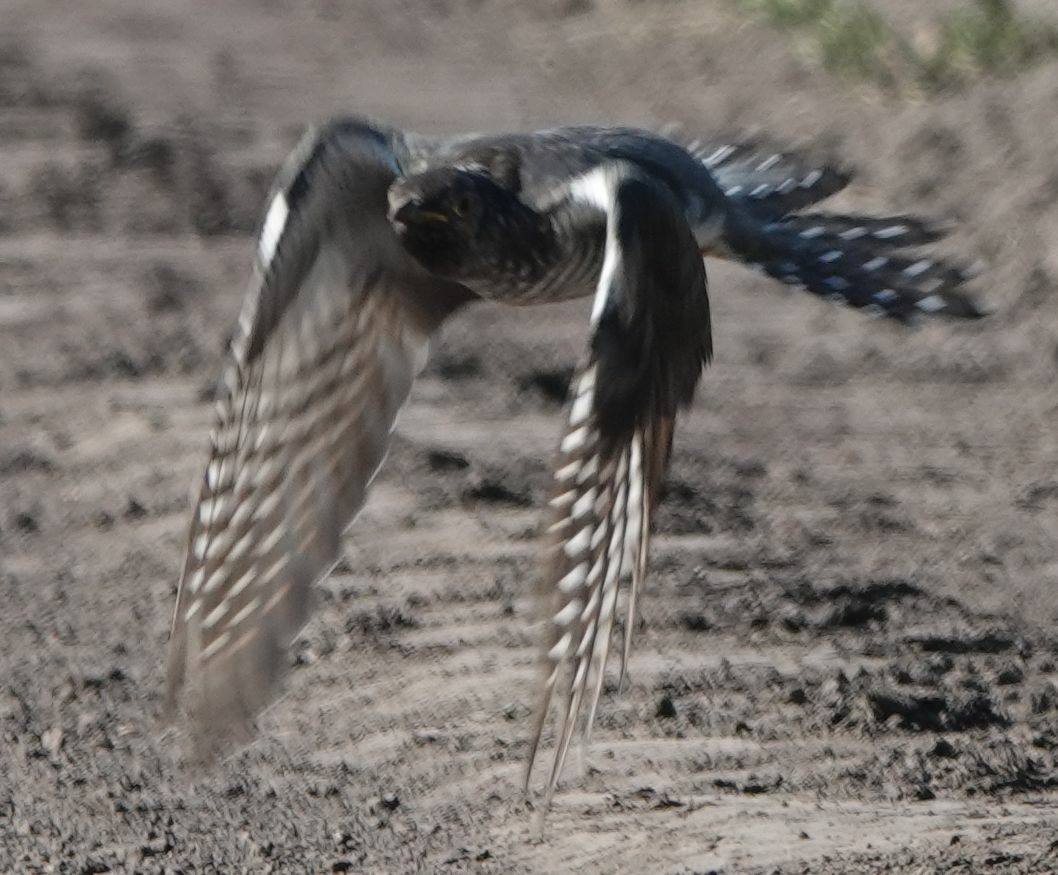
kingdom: Animalia
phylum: Chordata
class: Aves
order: Cuculiformes
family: Cuculidae
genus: Cuculus
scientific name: Cuculus canorus
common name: Common cuckoo
